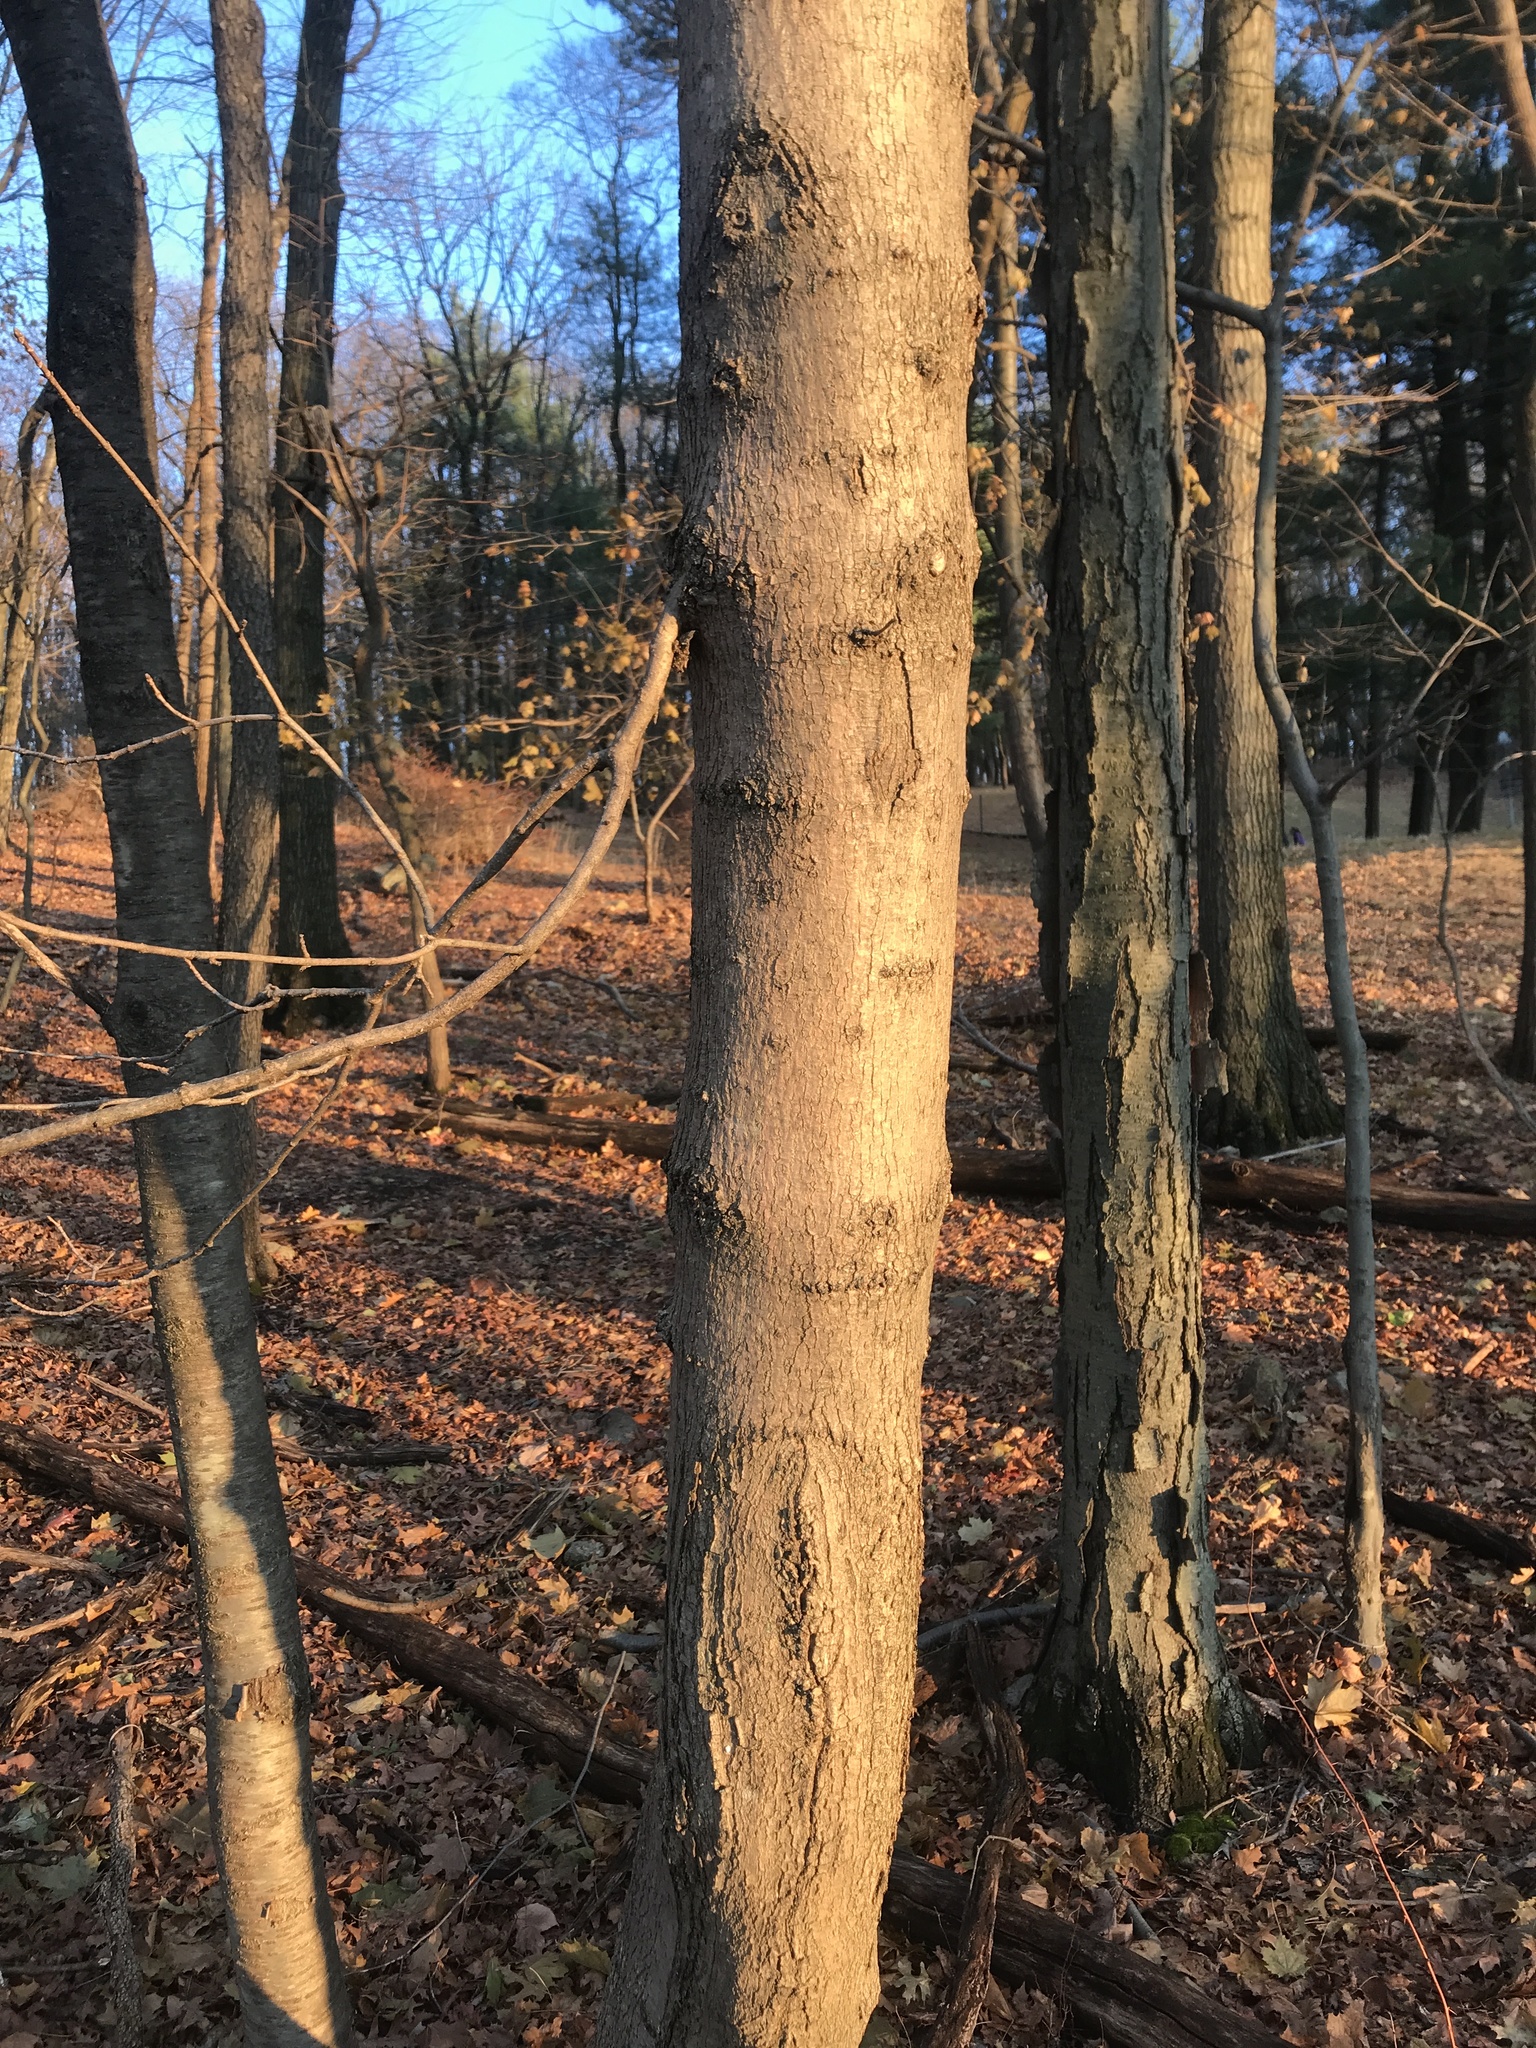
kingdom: Plantae
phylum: Tracheophyta
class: Magnoliopsida
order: Sapindales
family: Sapindaceae
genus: Acer
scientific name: Acer platanoides
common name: Norway maple
